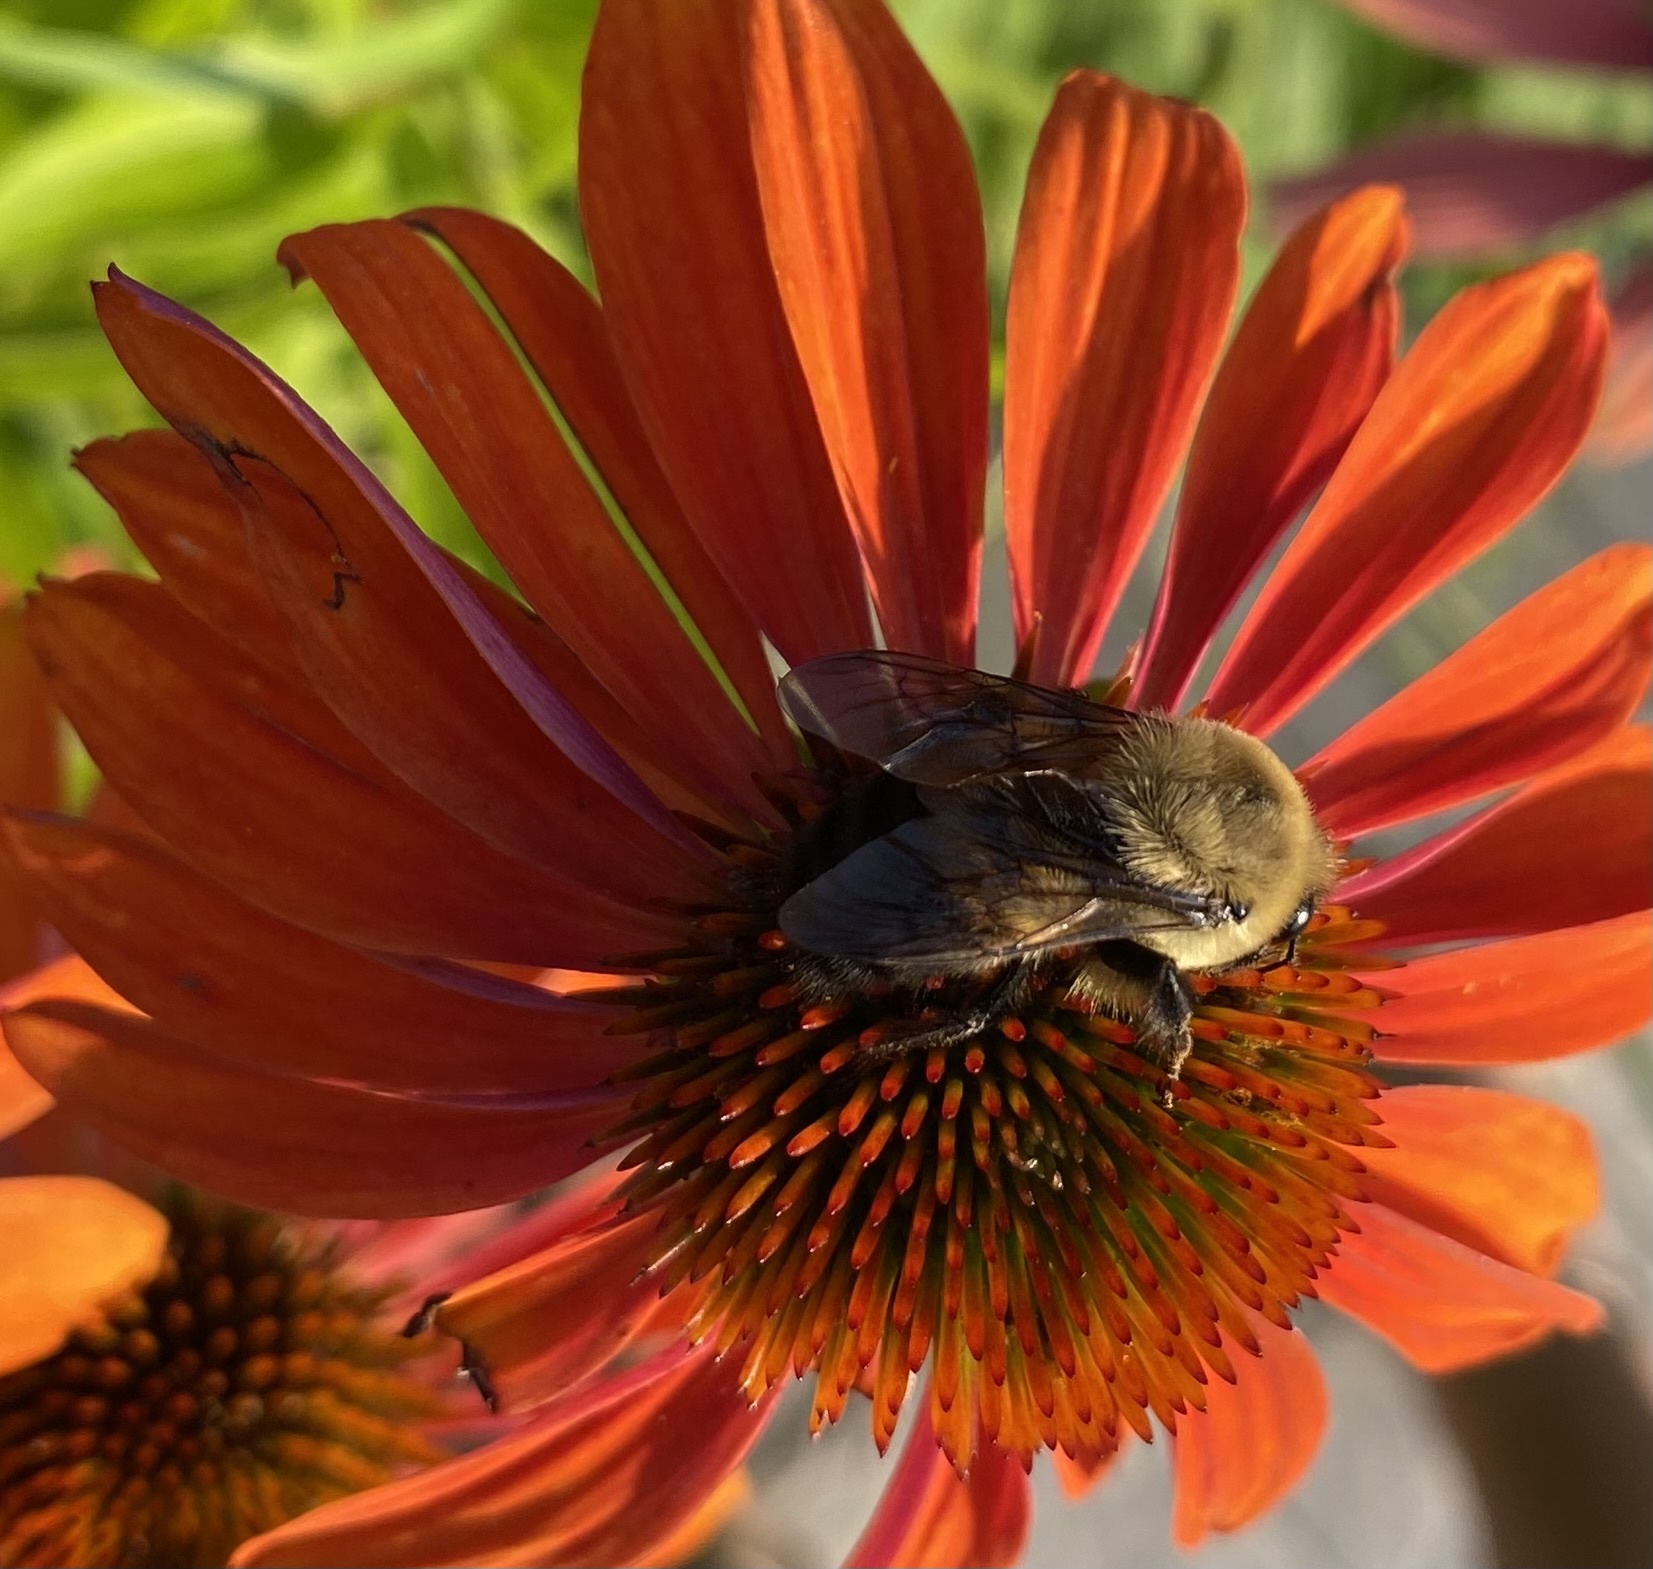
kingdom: Animalia
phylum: Arthropoda
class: Insecta
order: Hymenoptera
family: Apidae
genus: Bombus
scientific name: Bombus griseocollis
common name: Brown-belted bumble bee
